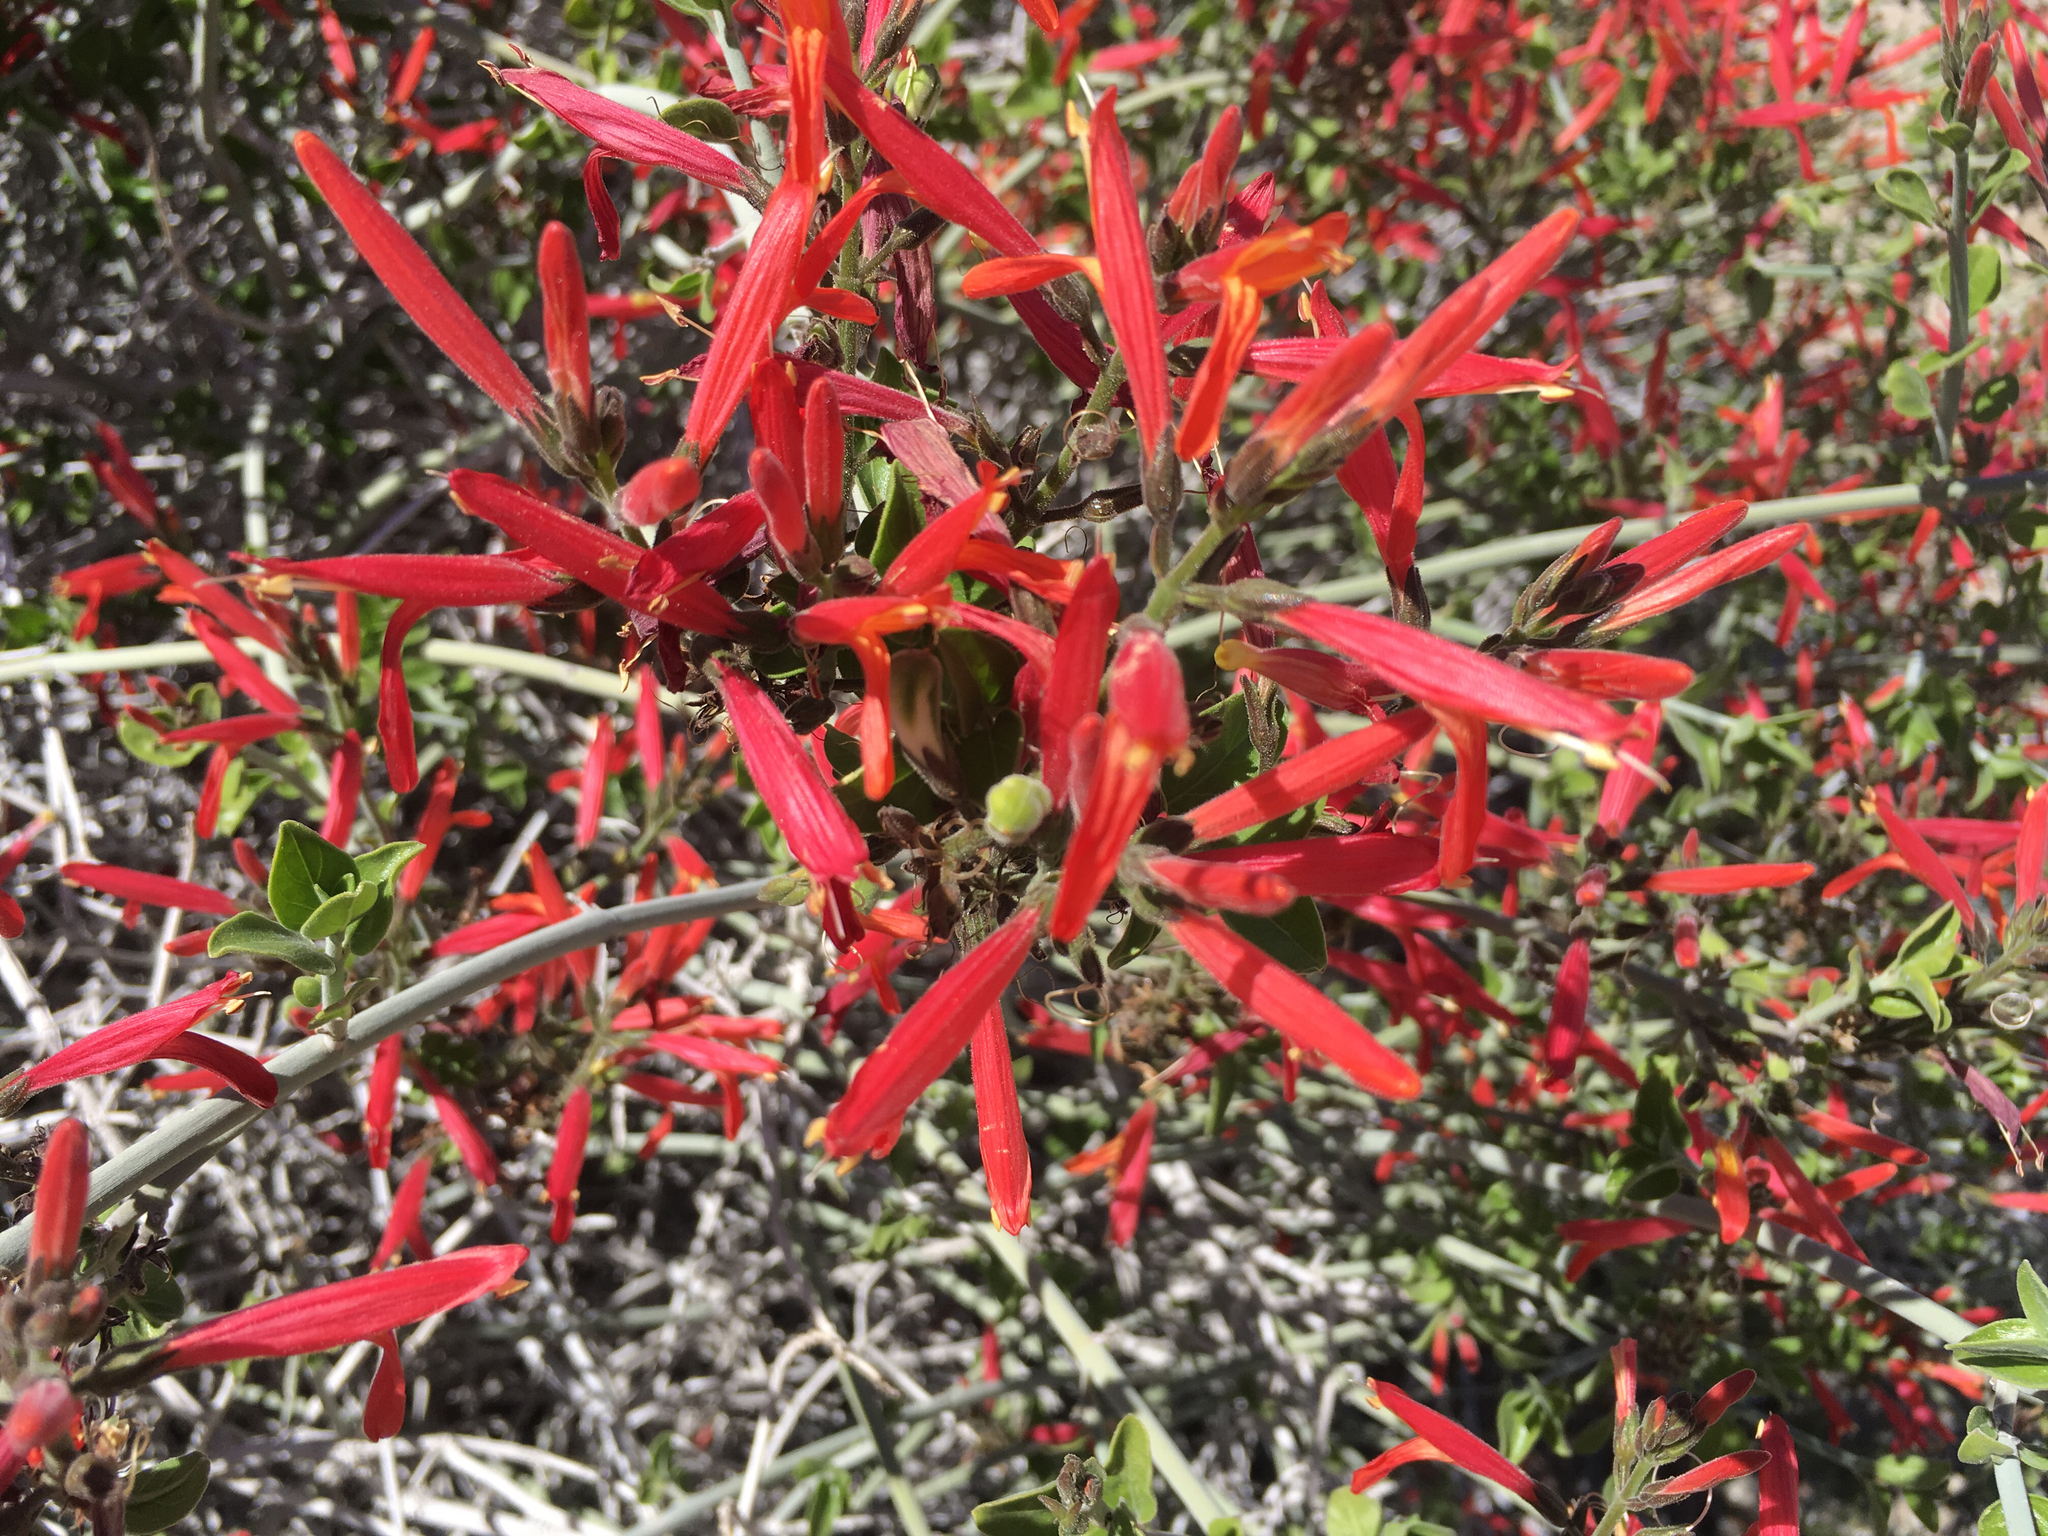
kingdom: Plantae
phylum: Tracheophyta
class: Magnoliopsida
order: Lamiales
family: Acanthaceae
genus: Justicia
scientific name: Justicia californica
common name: Chuparosa-honeysuckle
